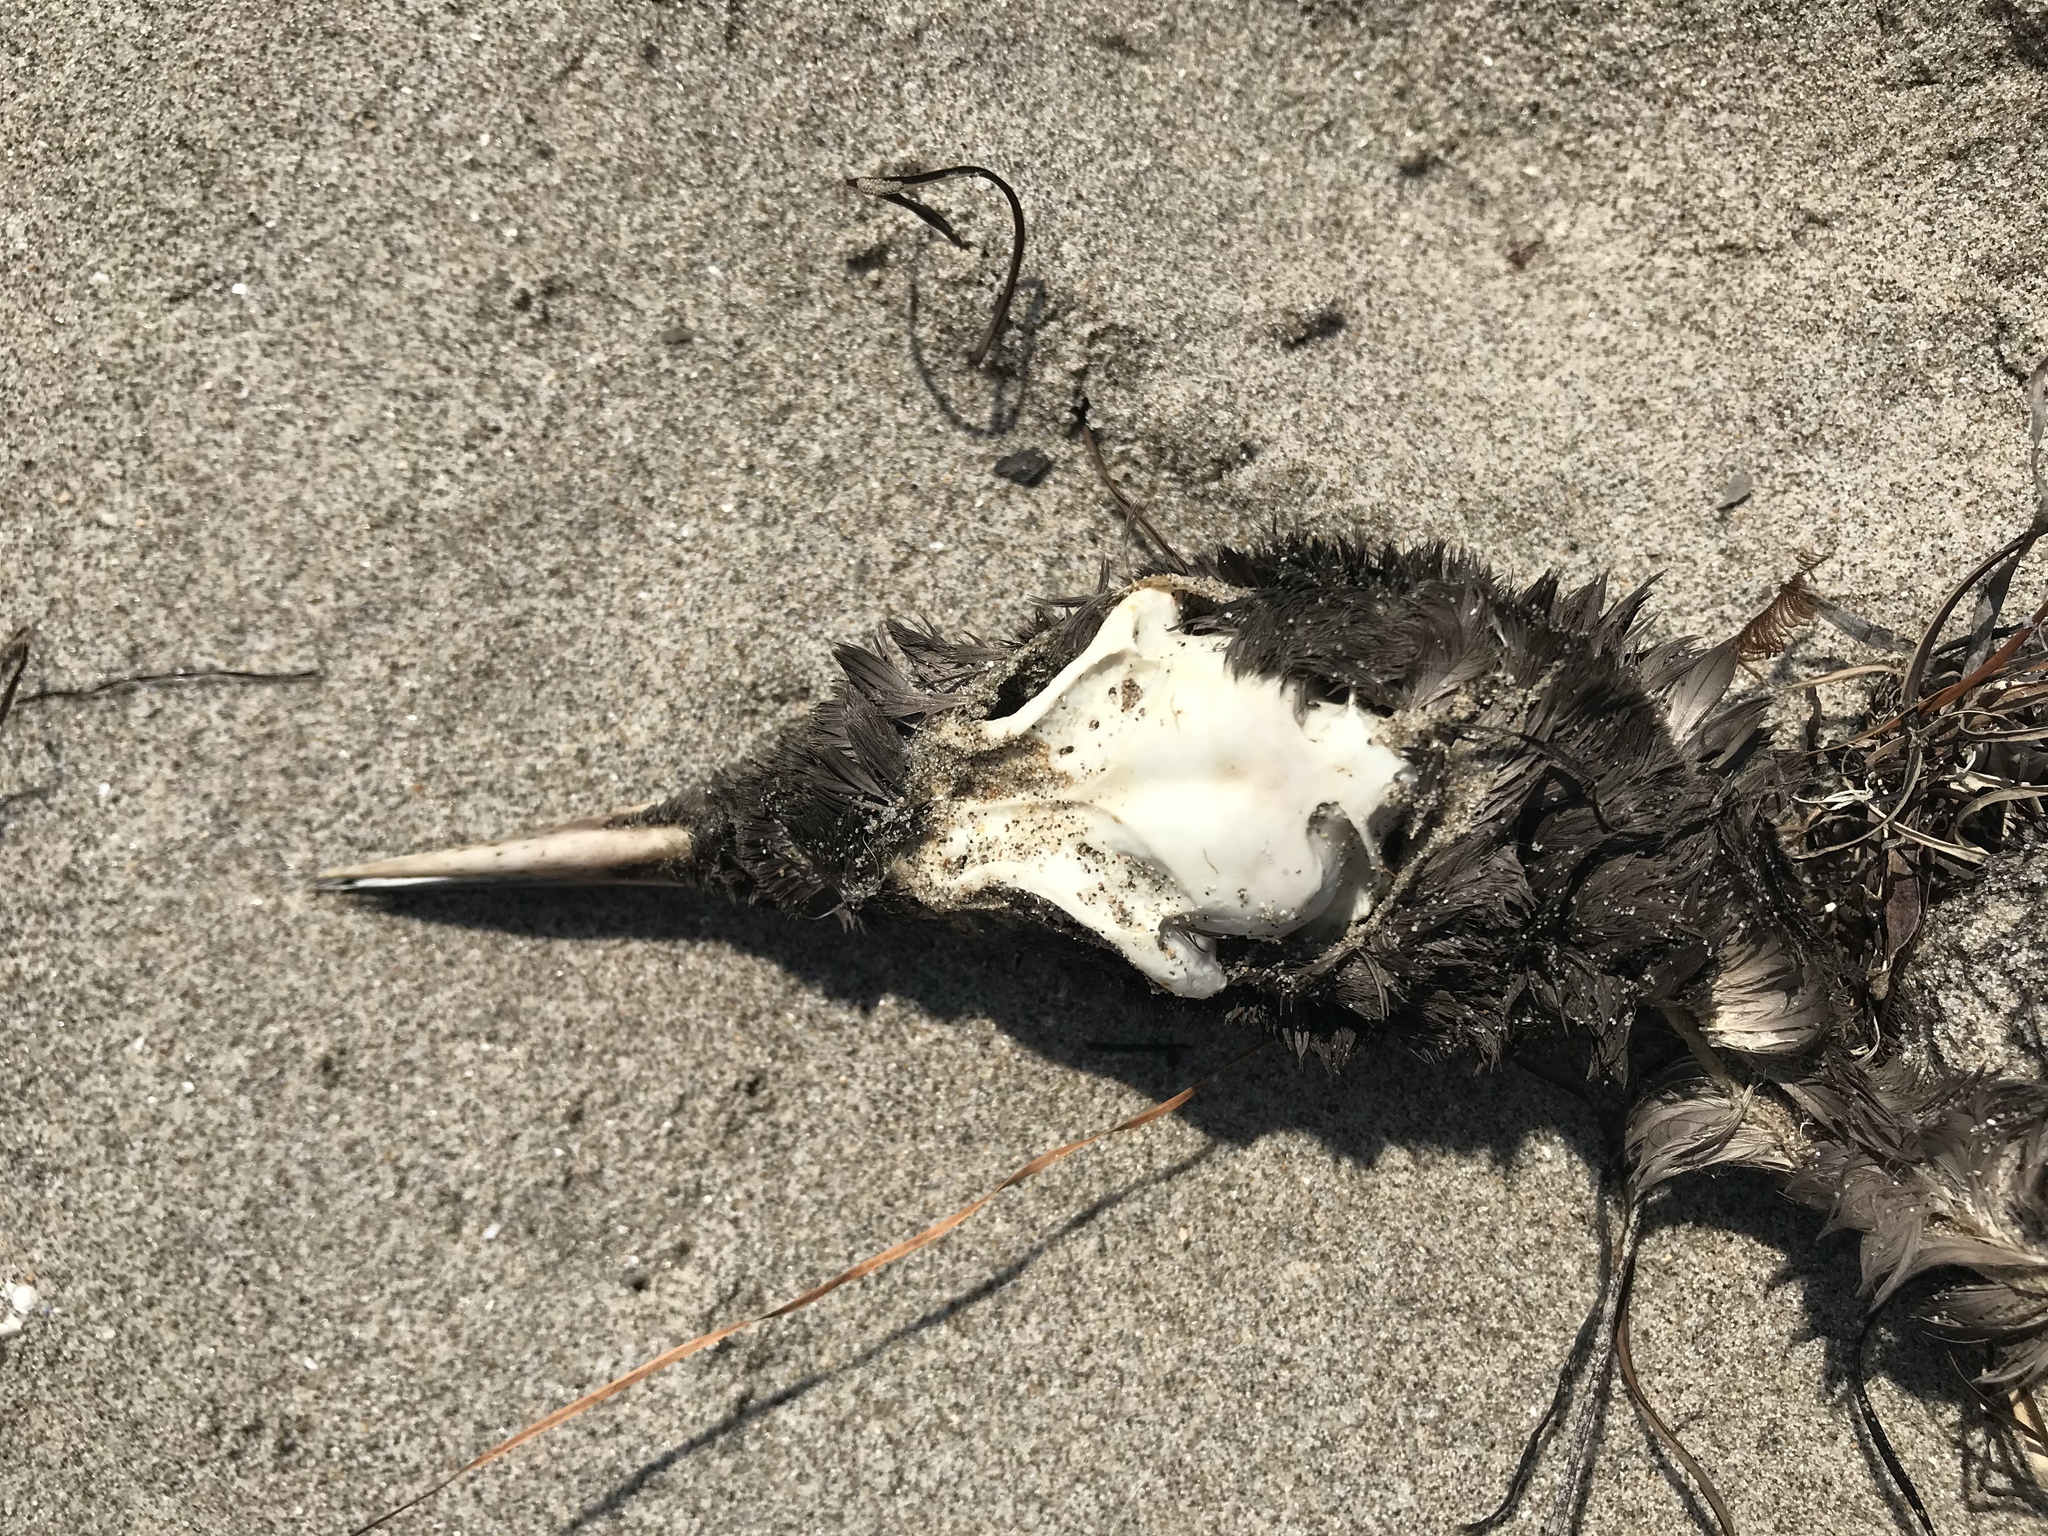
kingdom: Animalia
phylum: Chordata
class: Aves
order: Charadriiformes
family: Alcidae
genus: Uria
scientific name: Uria aalge
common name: Common murre
